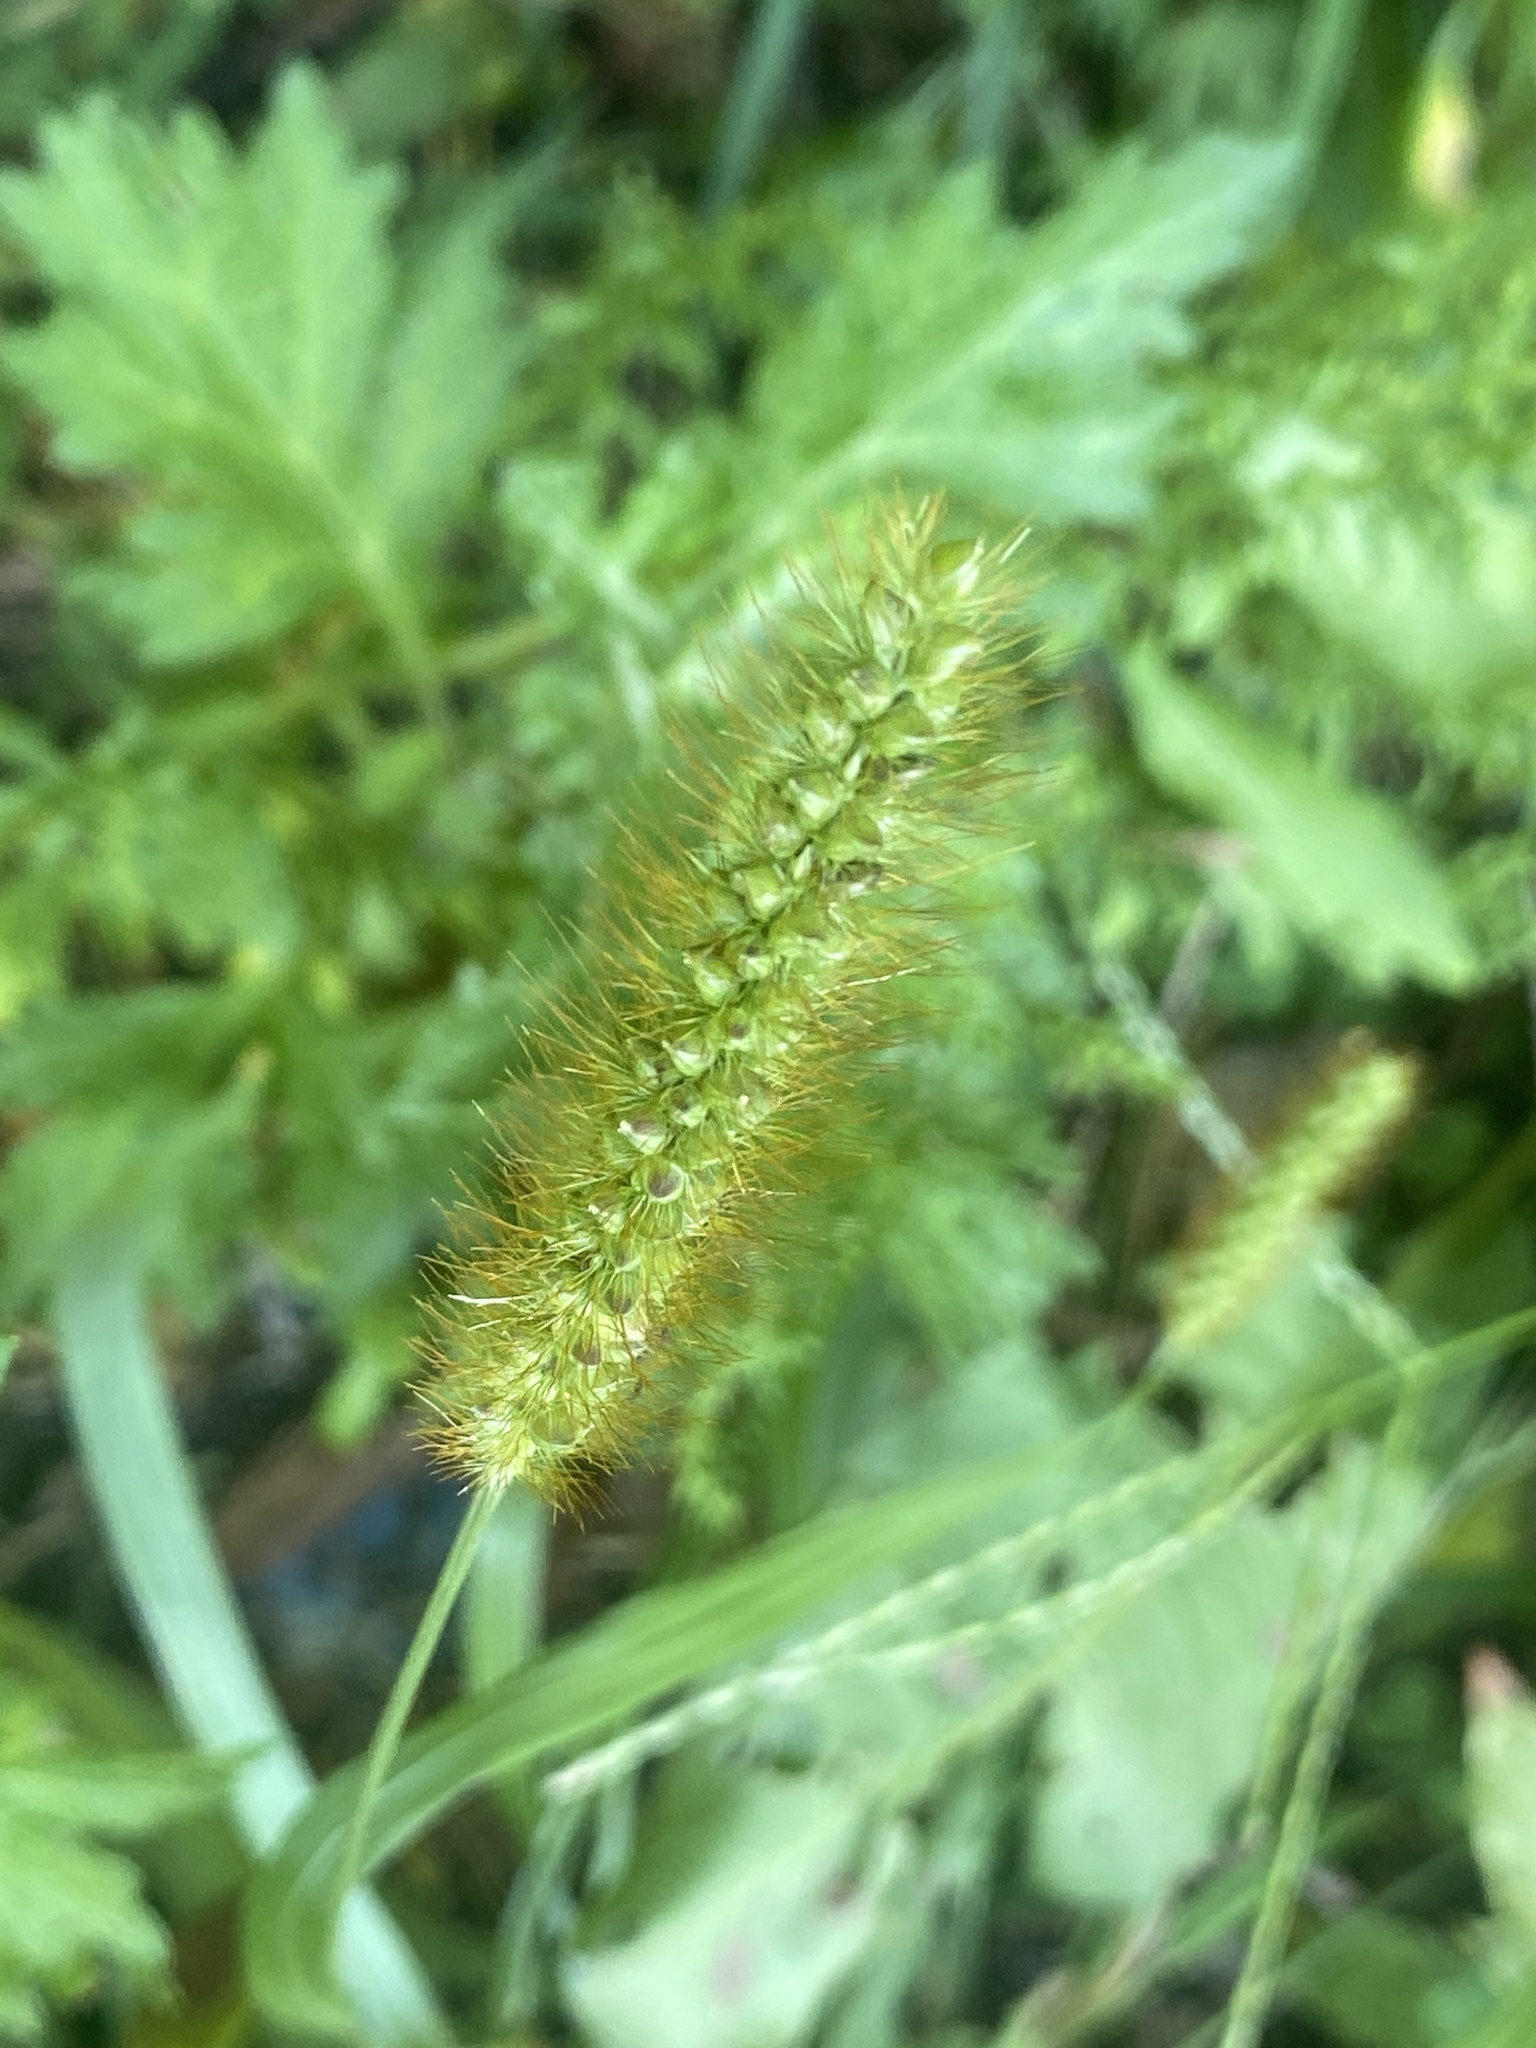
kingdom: Plantae
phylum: Tracheophyta
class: Liliopsida
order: Poales
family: Poaceae
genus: Setaria
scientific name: Setaria pumila
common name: Yellow bristle-grass
